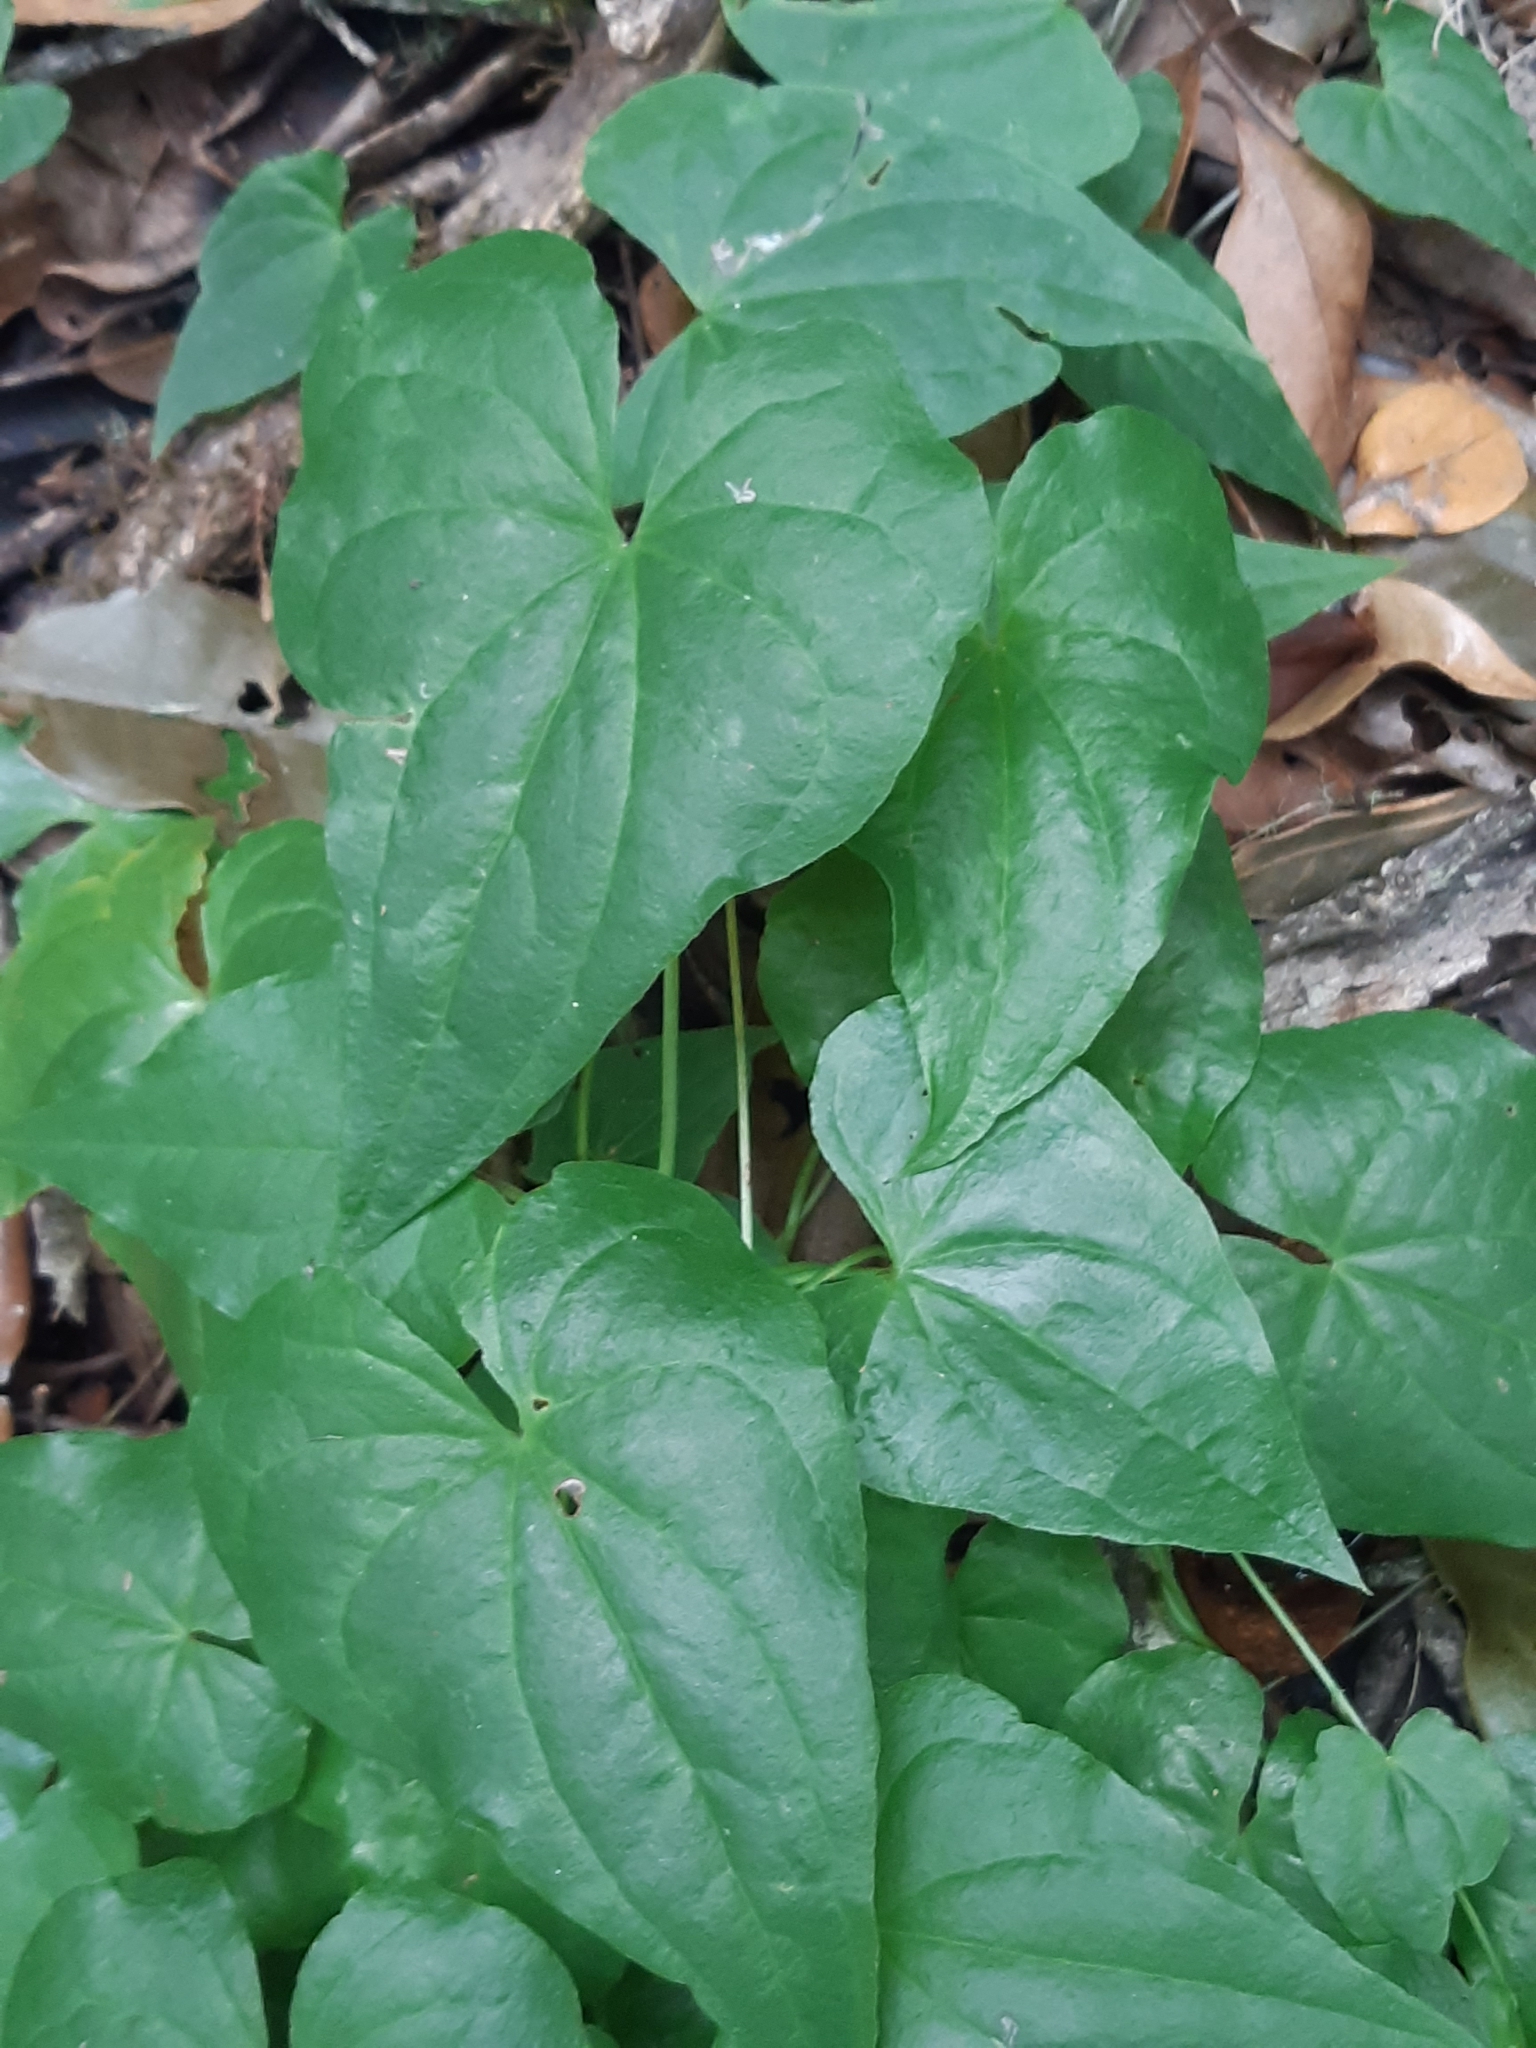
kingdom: Plantae
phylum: Tracheophyta
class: Liliopsida
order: Dioscoreales
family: Dioscoreaceae
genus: Dioscorea
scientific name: Dioscorea communis
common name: Black-bindweed
